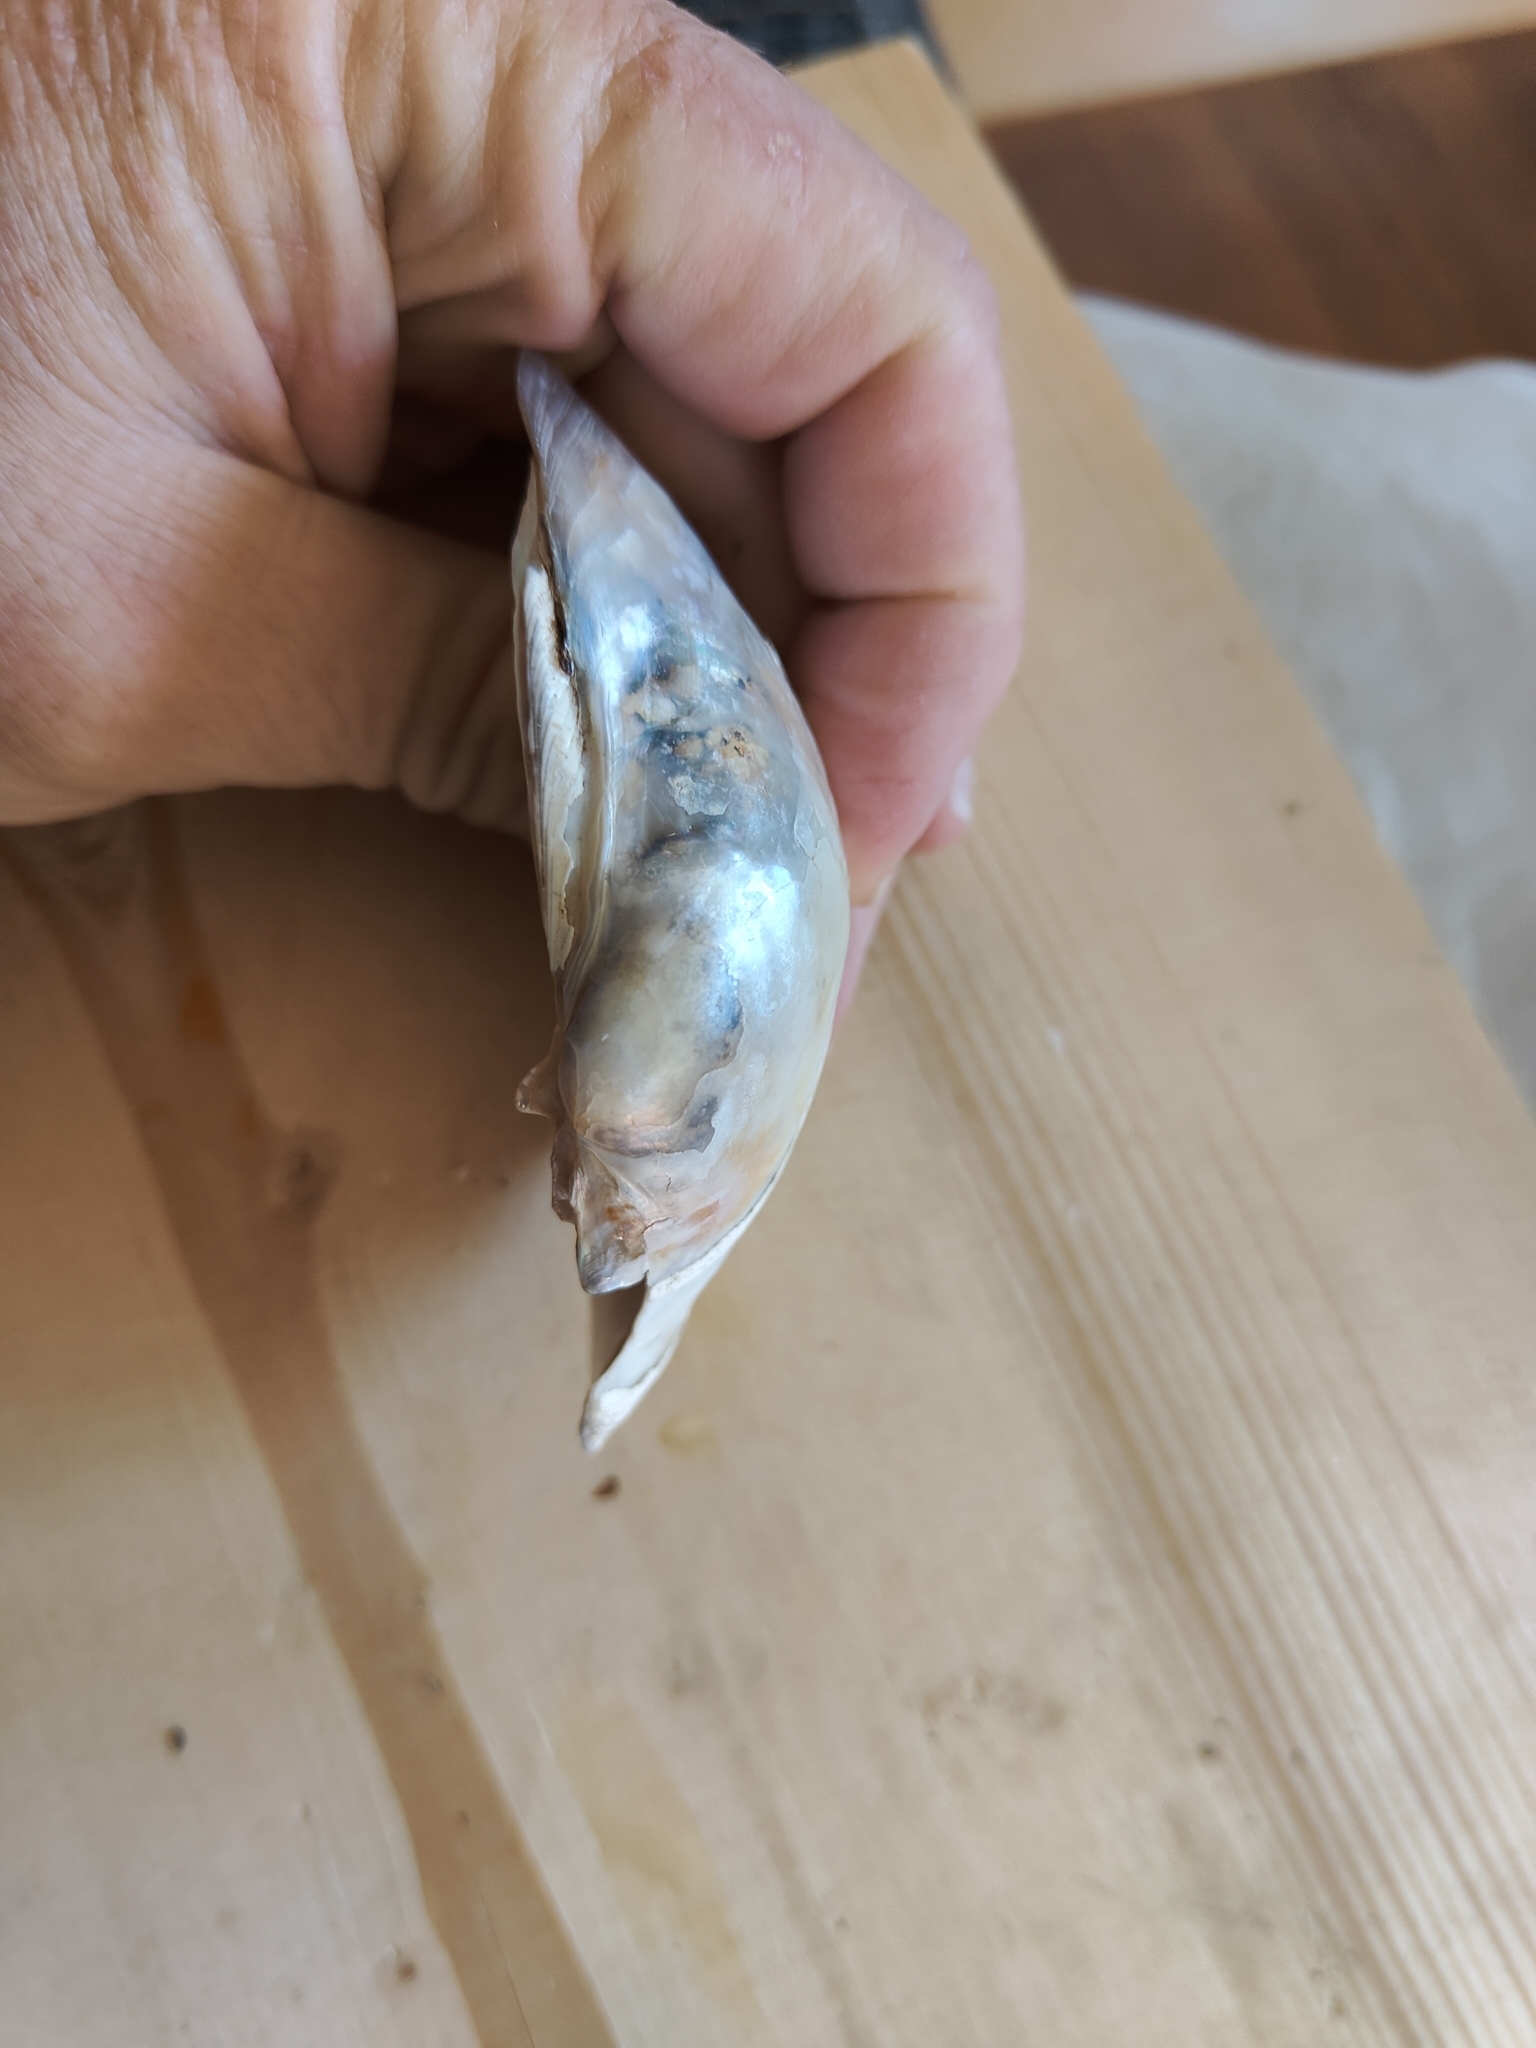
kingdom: Animalia
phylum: Mollusca
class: Bivalvia
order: Unionida
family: Unionidae
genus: Lampsilis
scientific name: Lampsilis cardium
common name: Plain pocketbook
